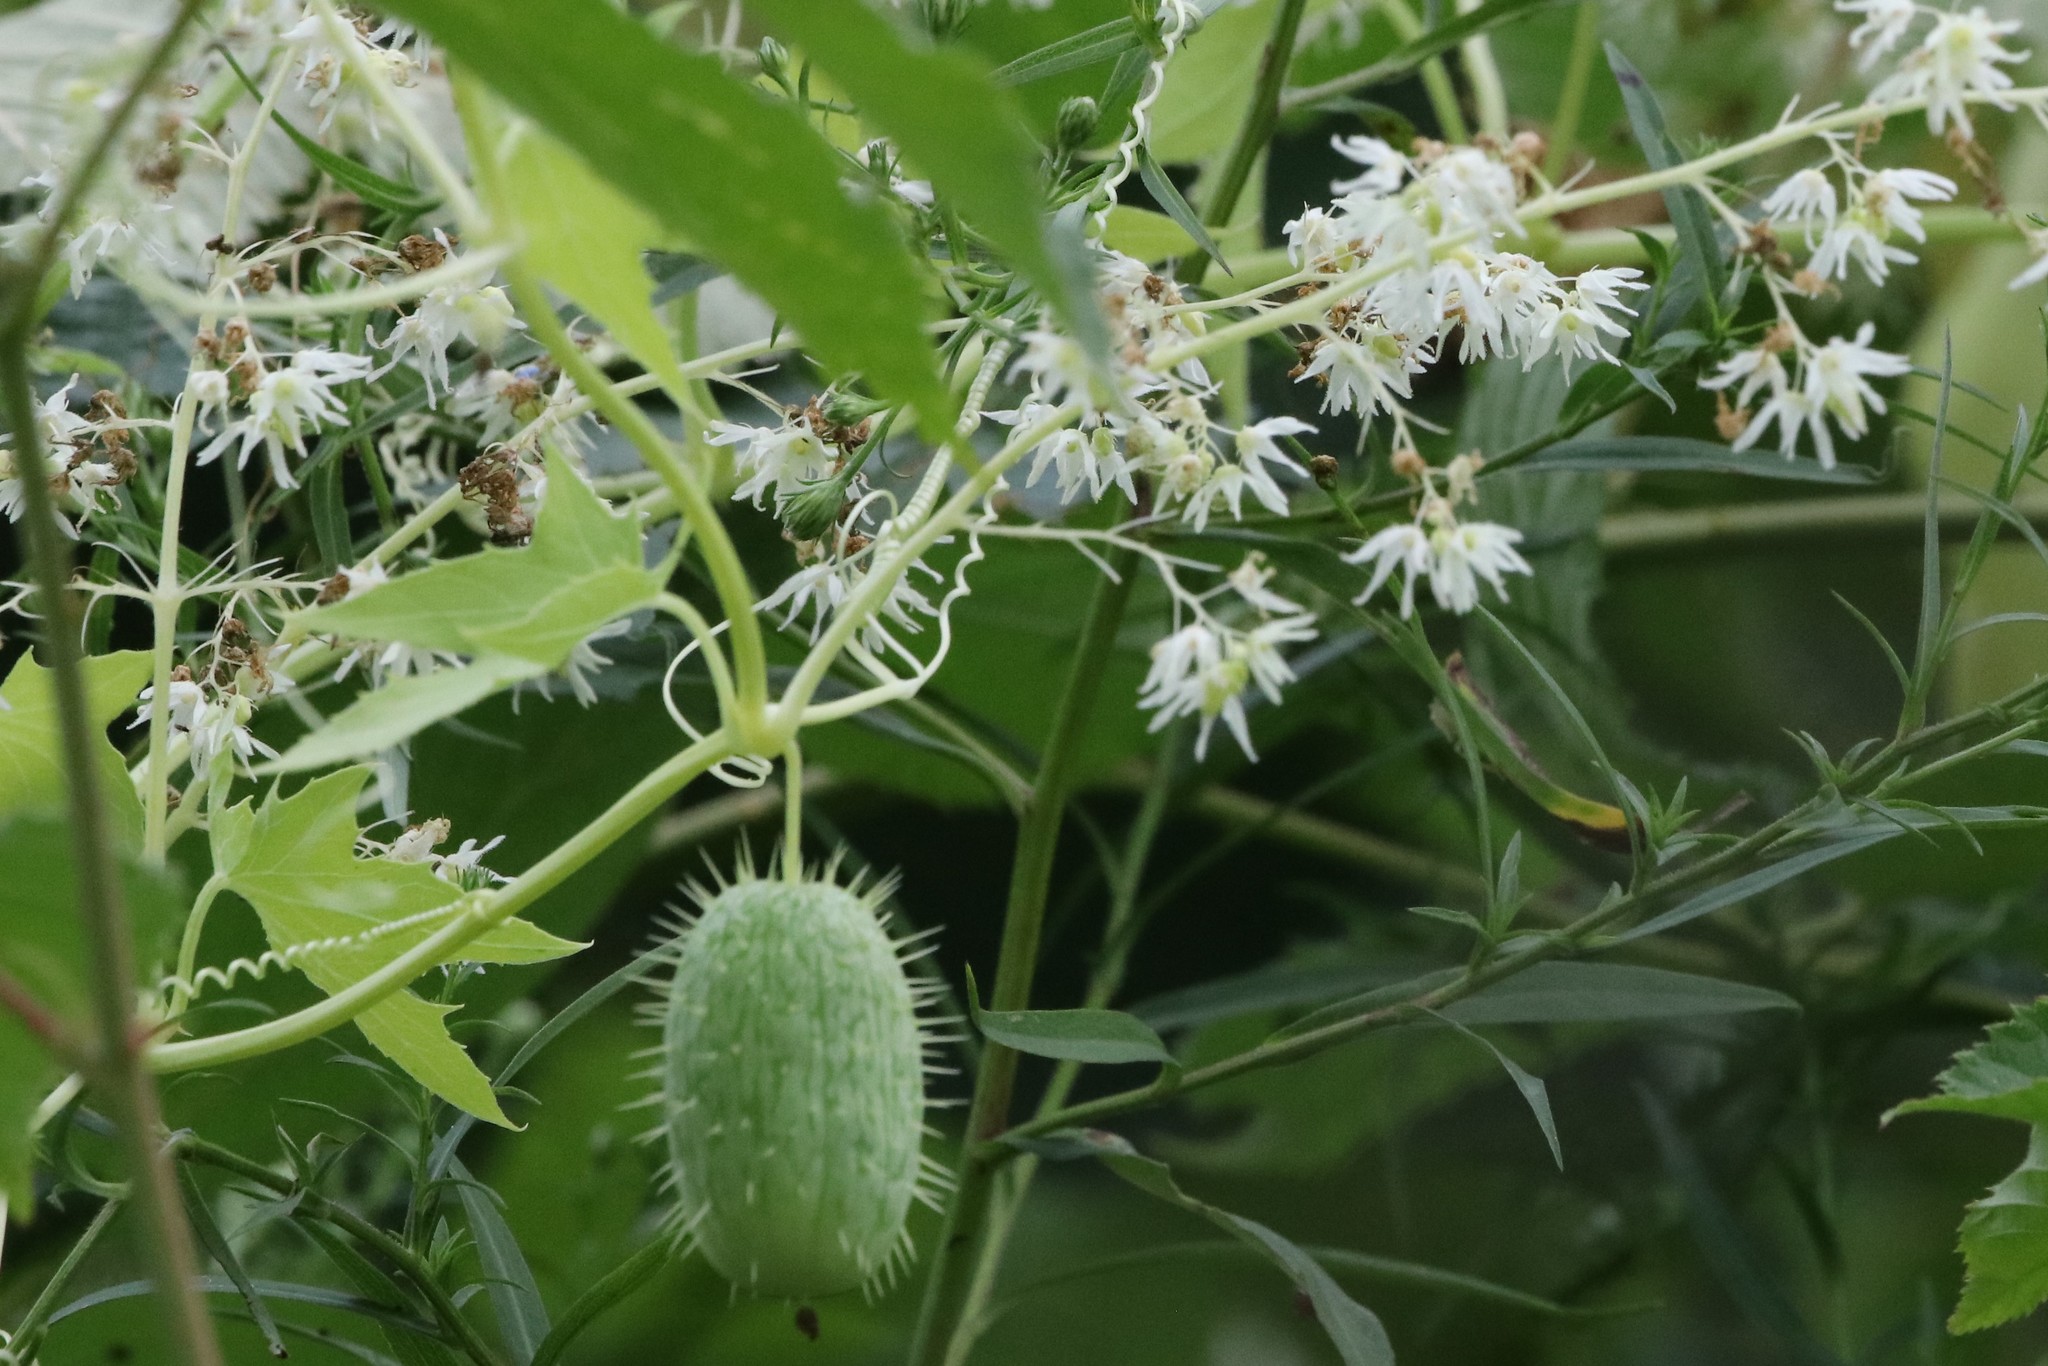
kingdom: Plantae
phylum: Tracheophyta
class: Magnoliopsida
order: Cucurbitales
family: Cucurbitaceae
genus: Echinocystis
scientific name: Echinocystis lobata
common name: Wild cucumber
